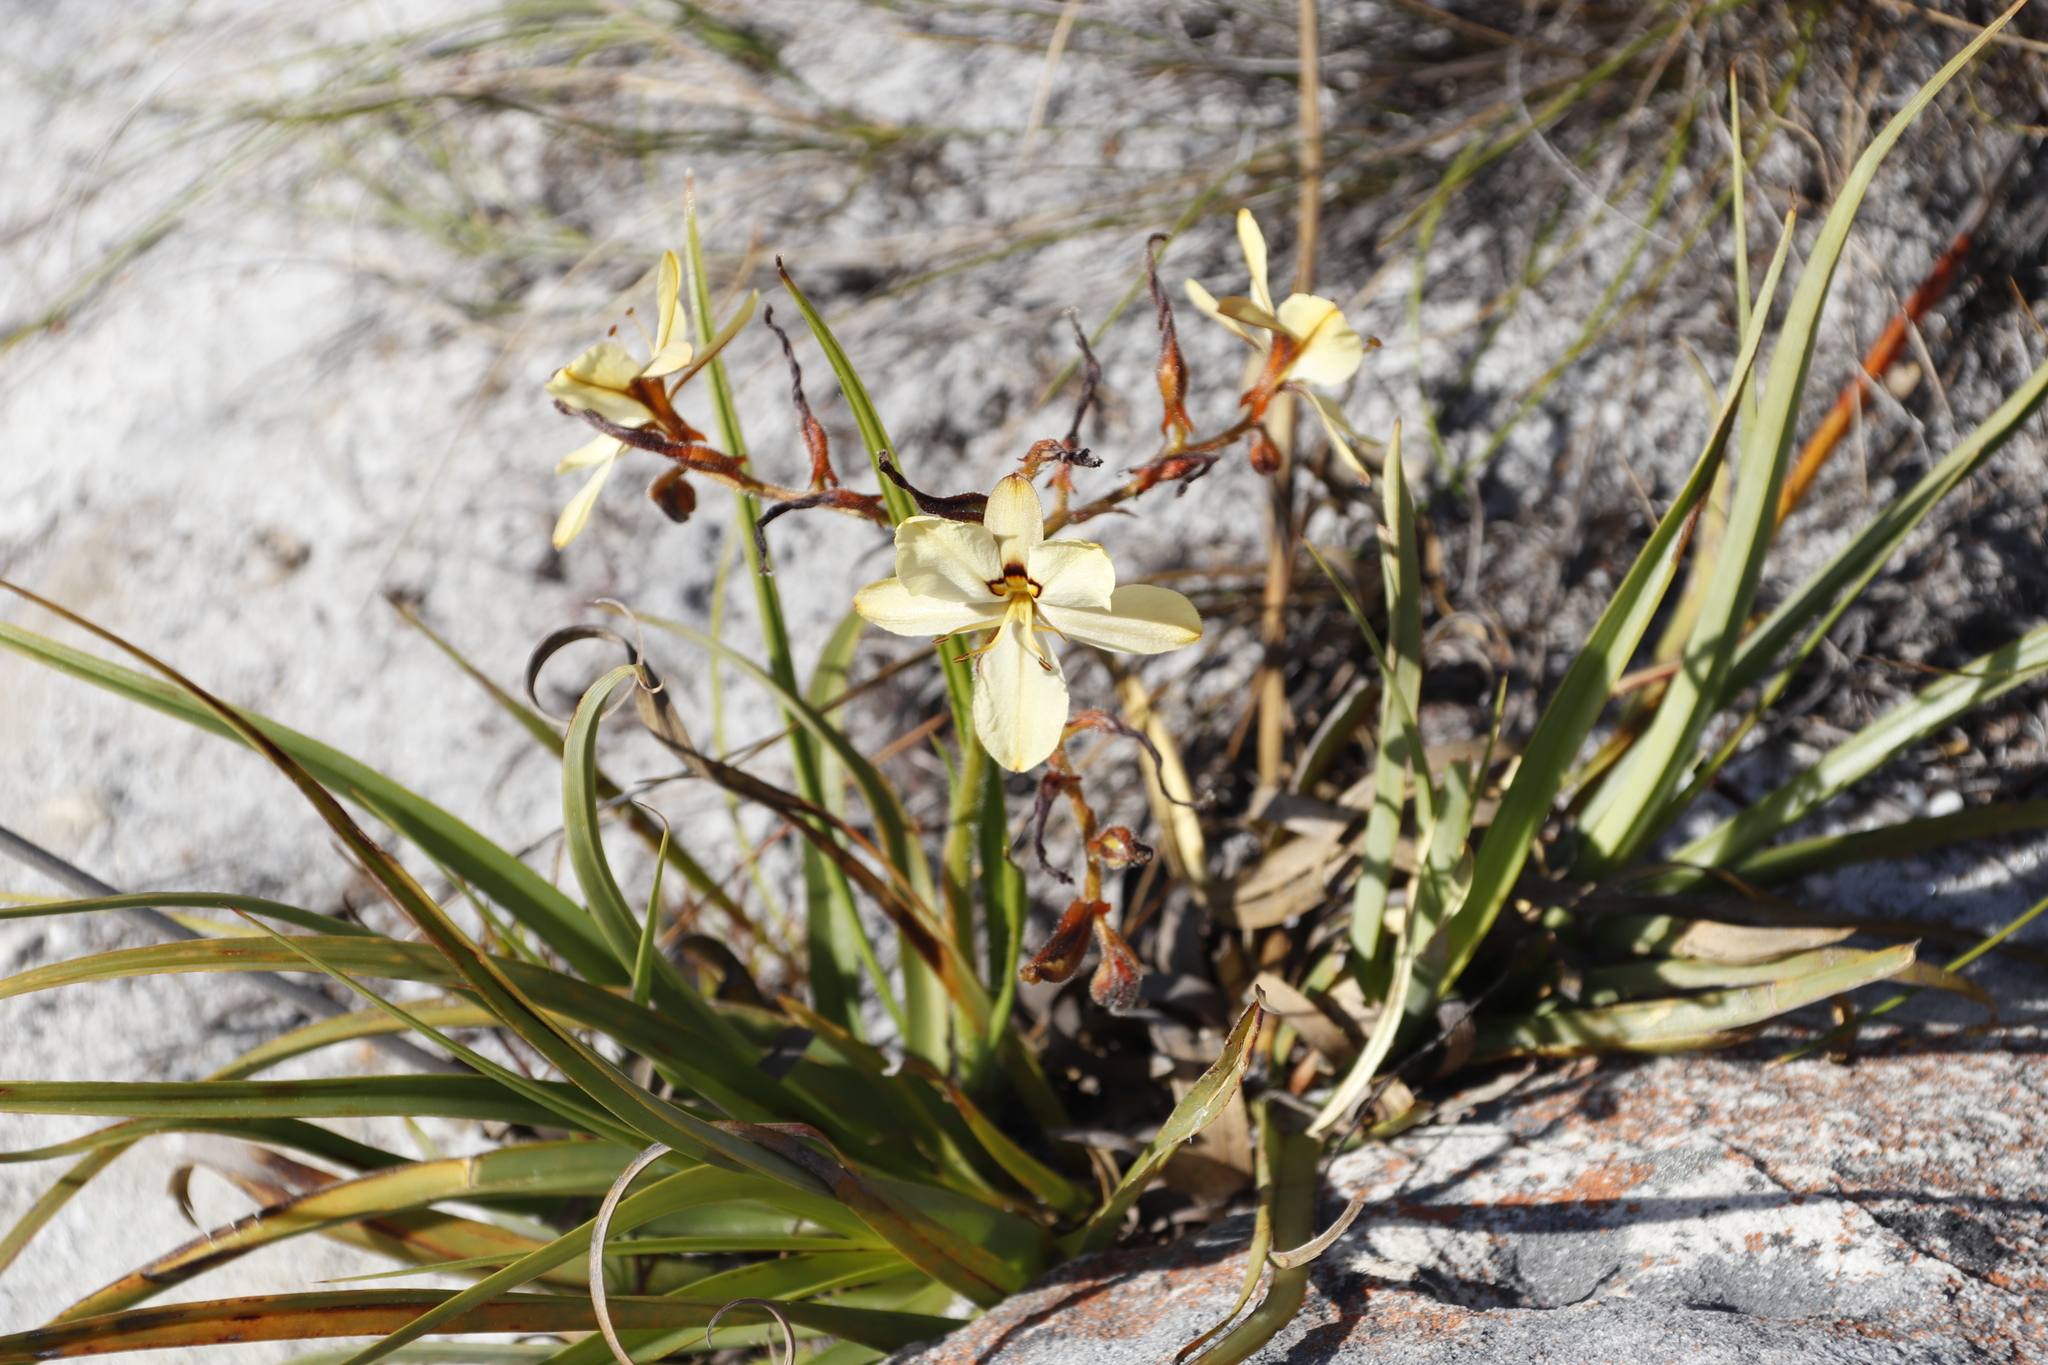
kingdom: Plantae
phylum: Tracheophyta
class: Liliopsida
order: Commelinales
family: Haemodoraceae
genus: Wachendorfia
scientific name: Wachendorfia paniculata
